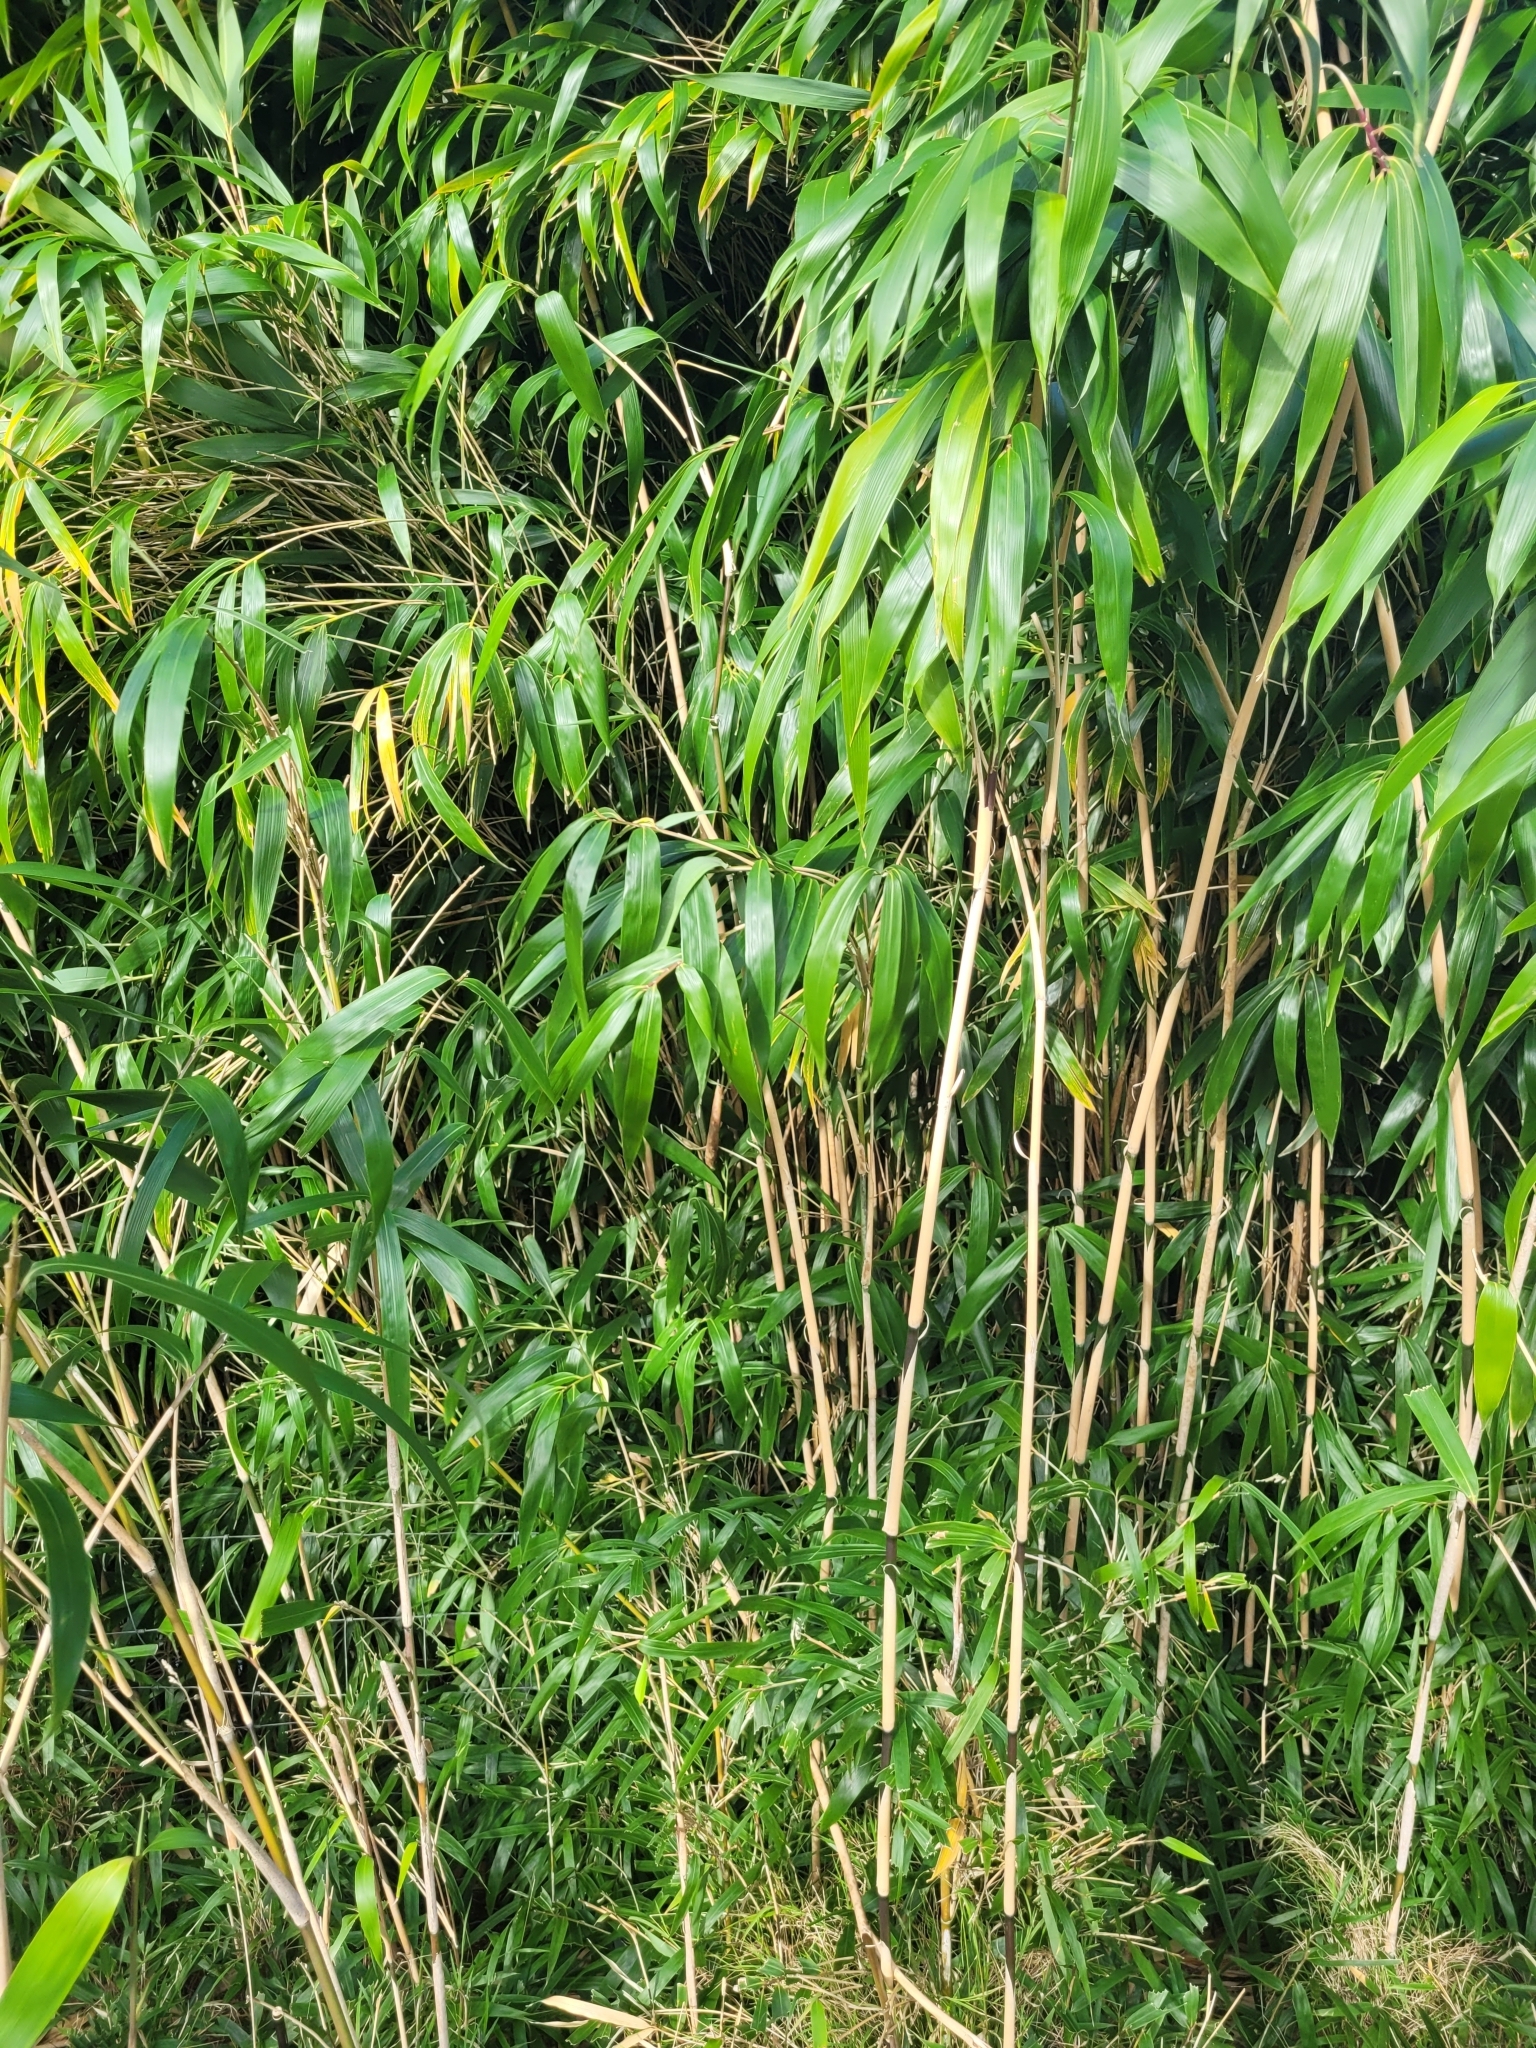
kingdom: Plantae
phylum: Tracheophyta
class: Liliopsida
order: Poales
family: Poaceae
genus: Pseudosasa
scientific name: Pseudosasa japonica
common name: Arrow bamboo
